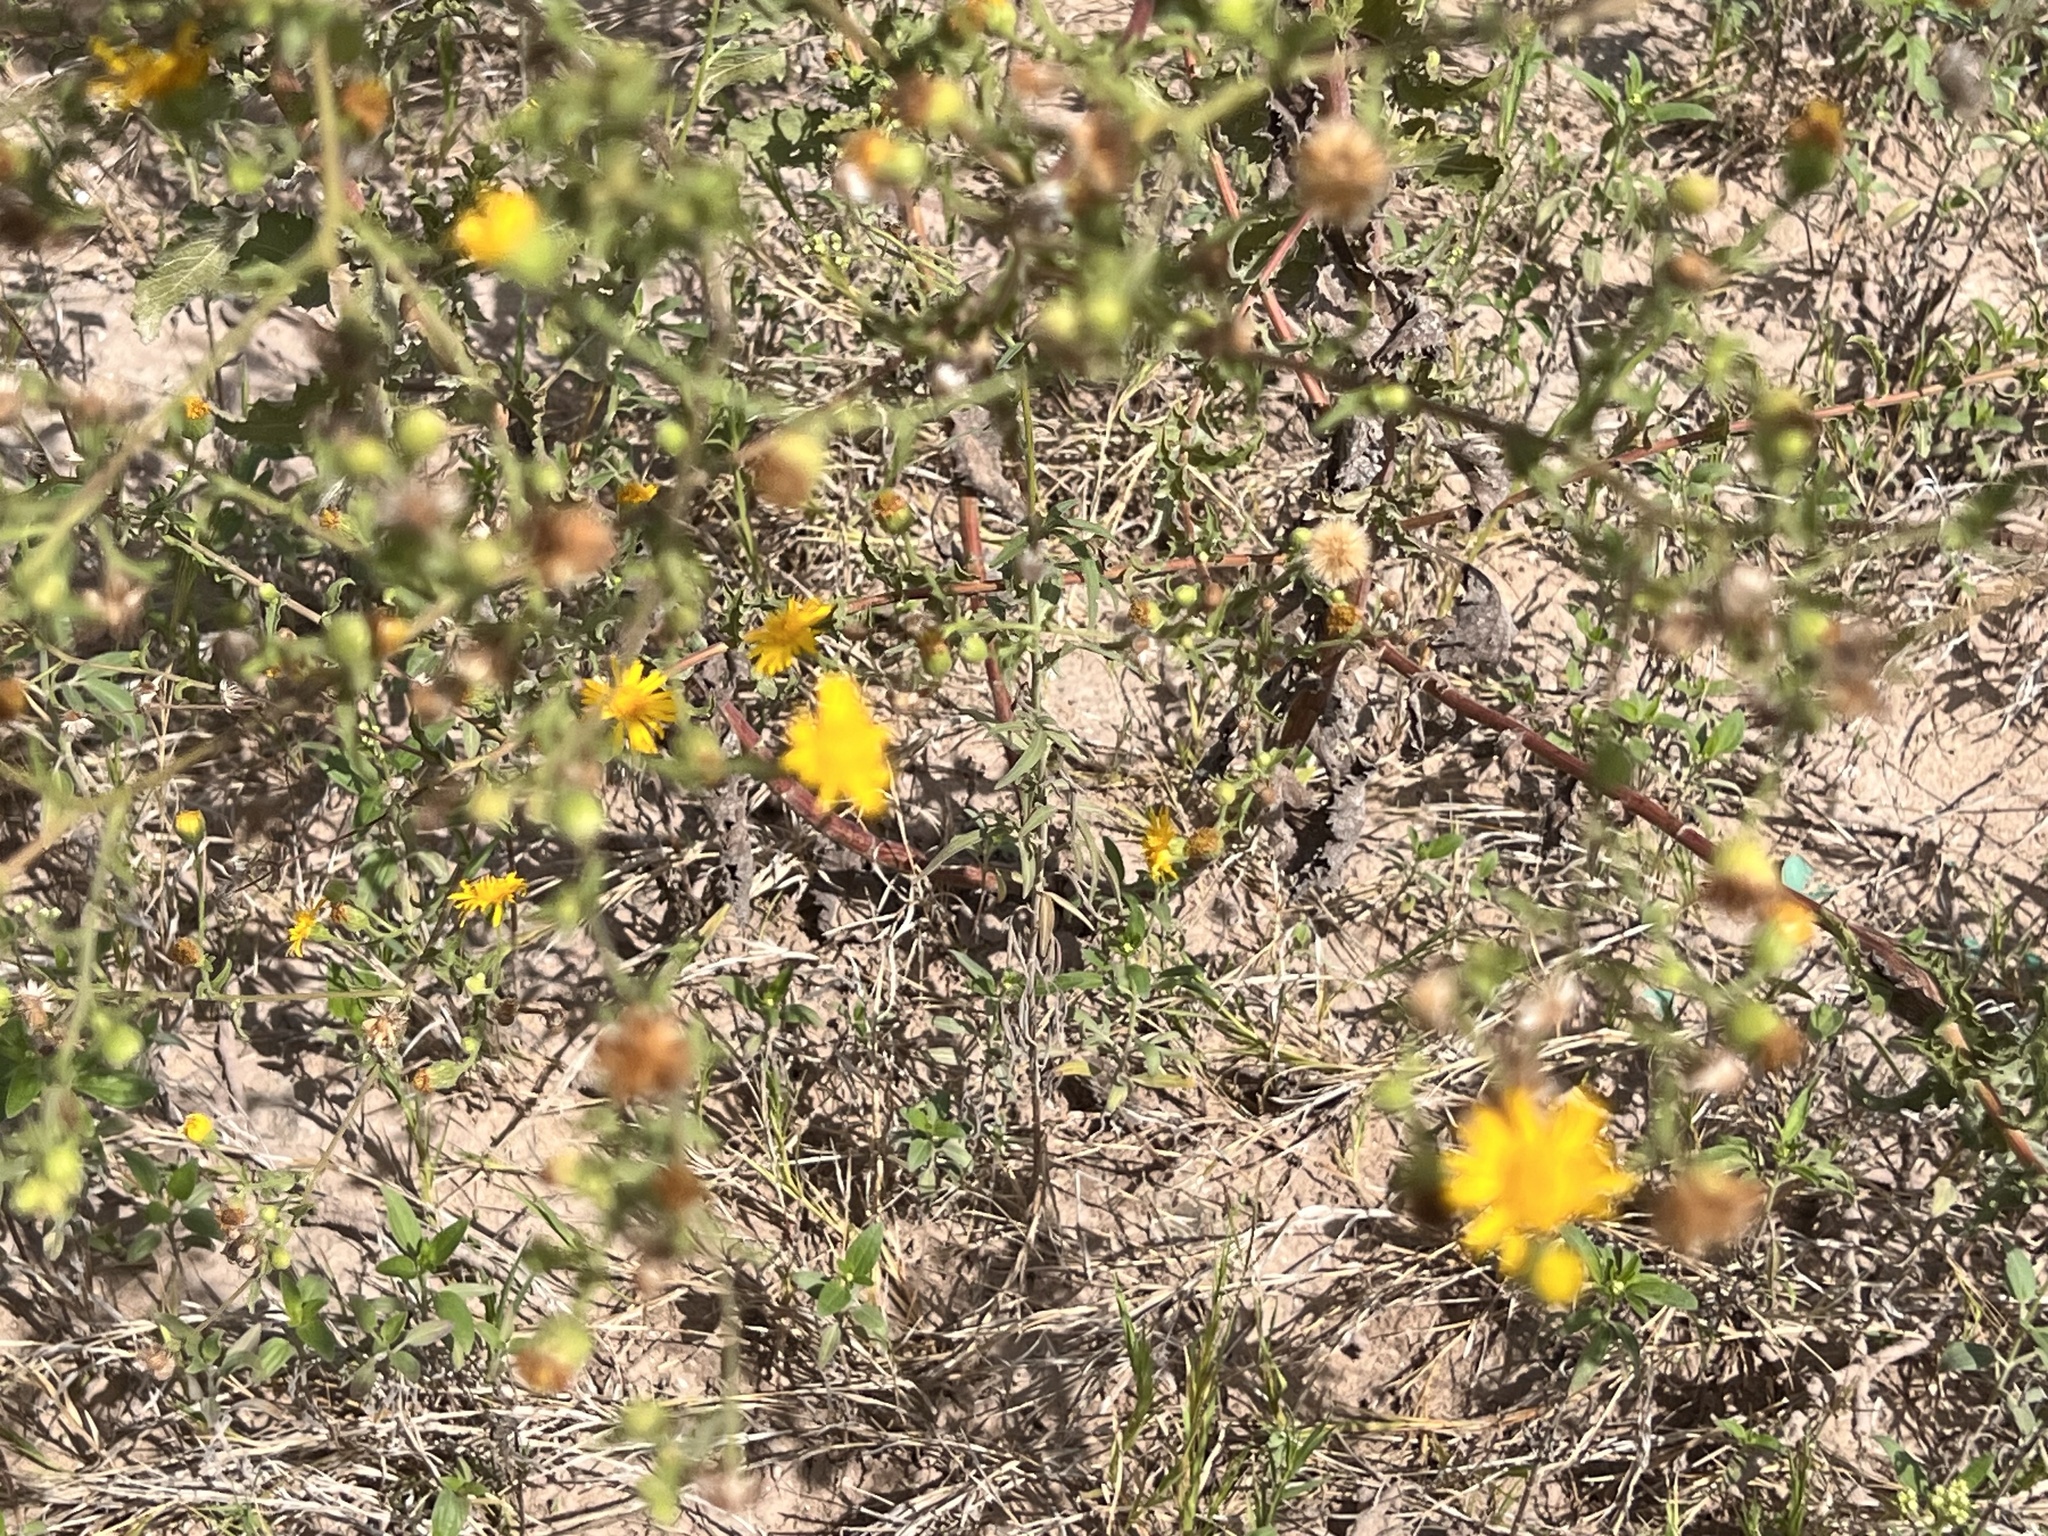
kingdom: Plantae
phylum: Tracheophyta
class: Magnoliopsida
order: Asterales
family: Asteraceae
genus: Heterotheca
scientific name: Heterotheca subaxillaris
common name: Camphorweed
